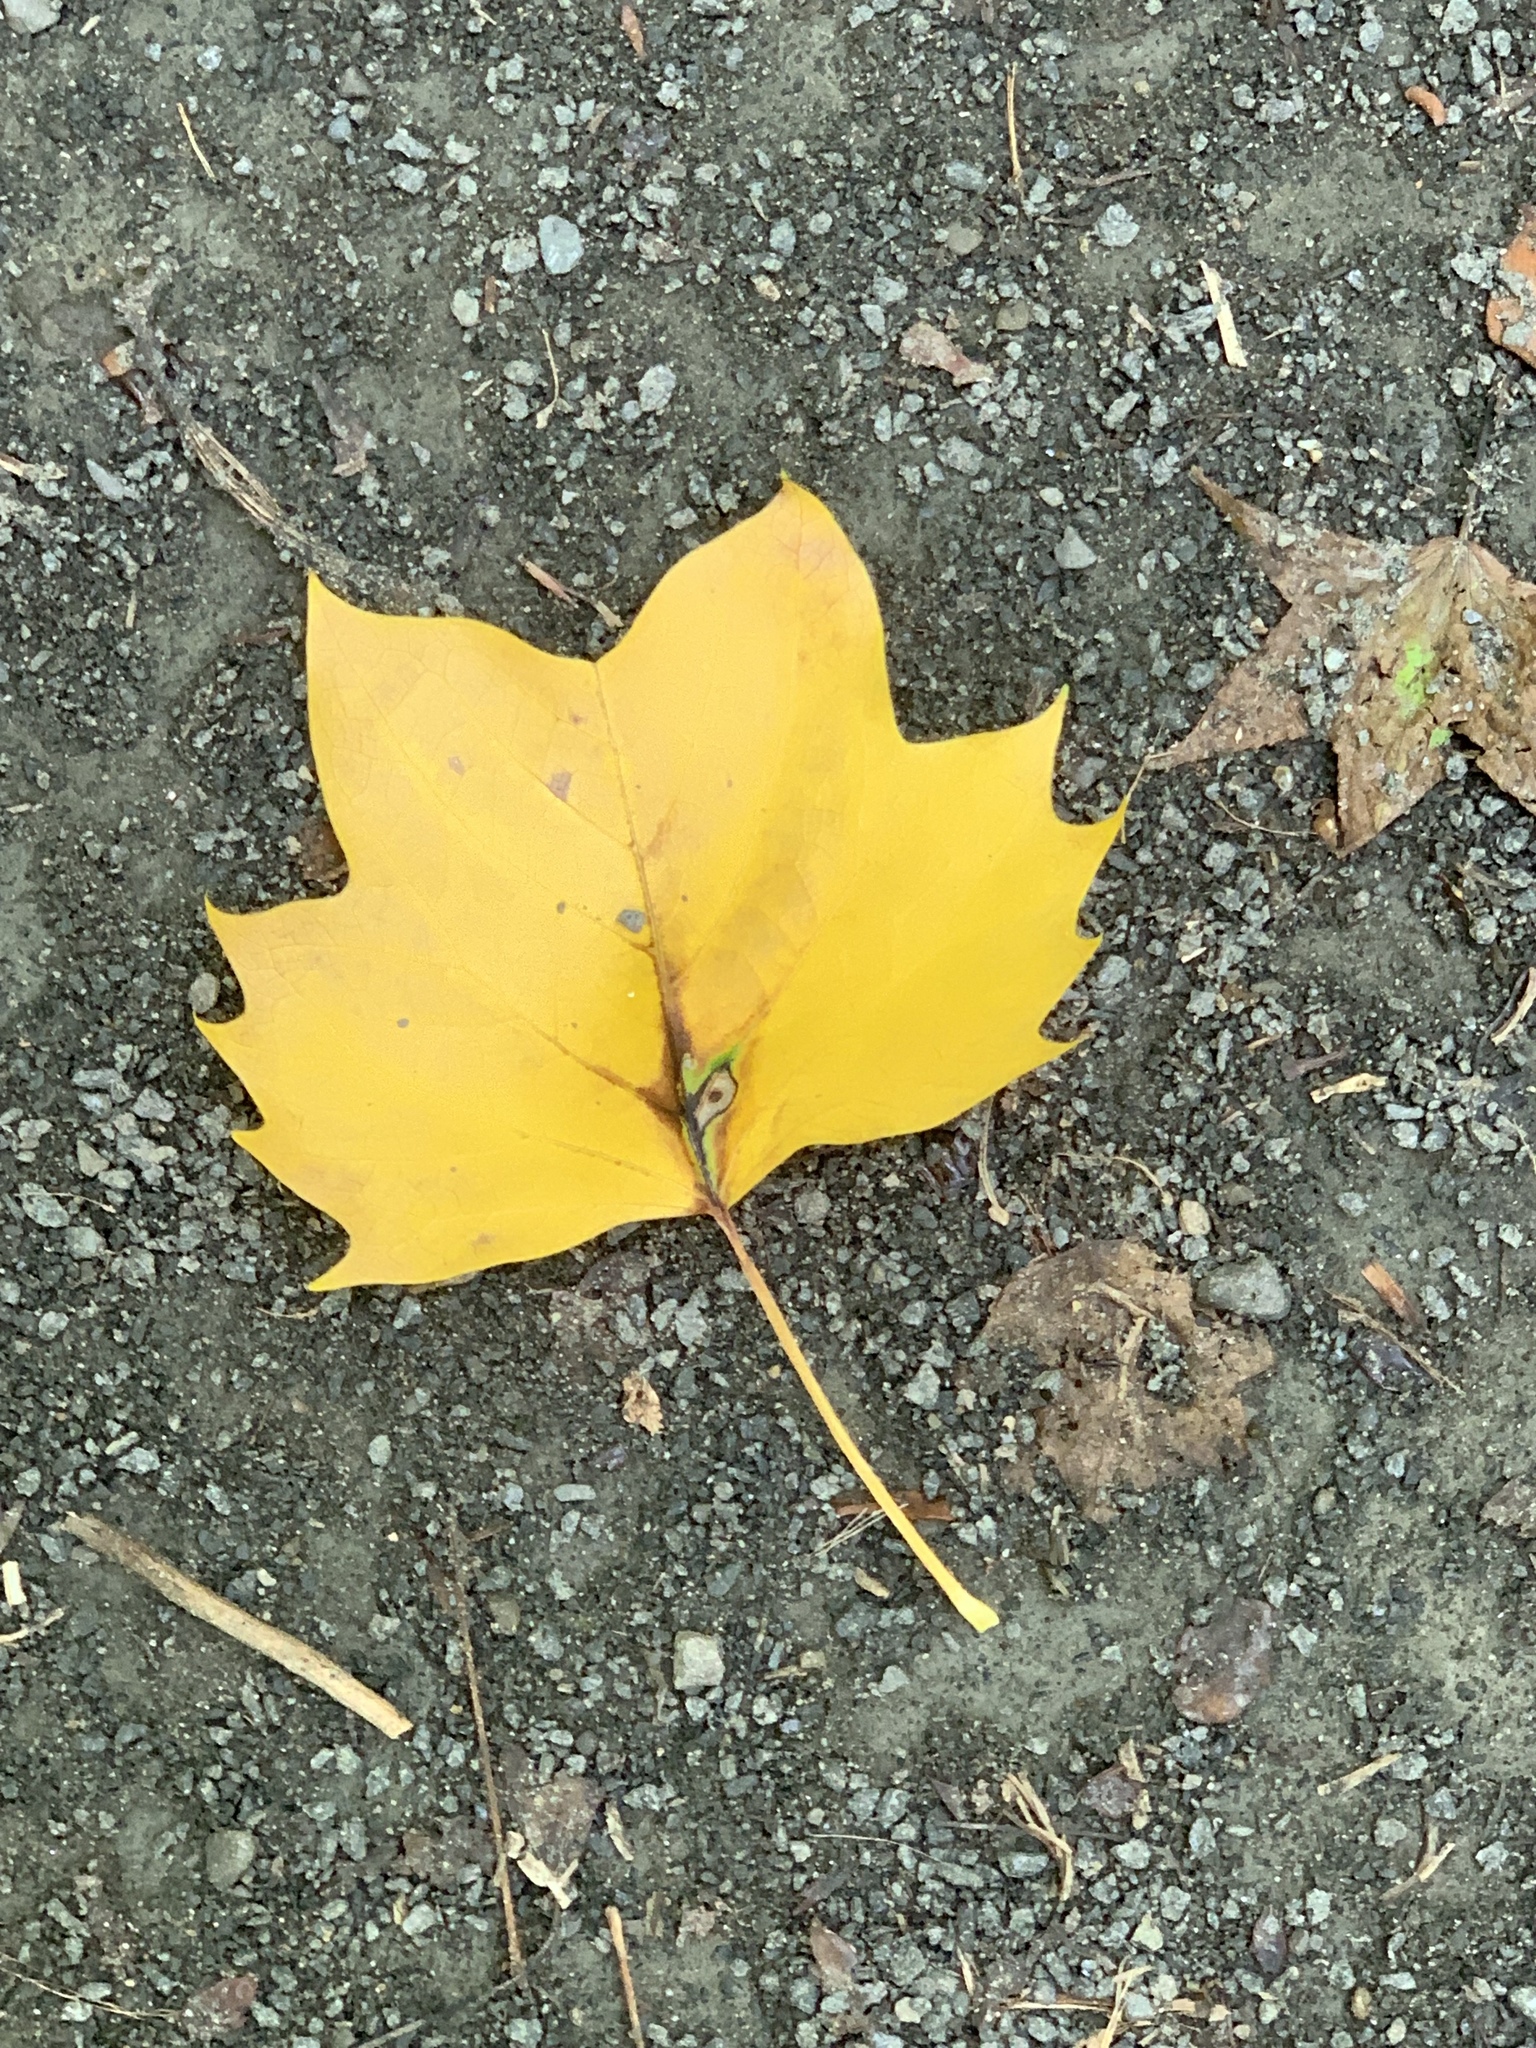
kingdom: Plantae
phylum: Tracheophyta
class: Magnoliopsida
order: Magnoliales
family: Magnoliaceae
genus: Liriodendron
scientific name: Liriodendron tulipifera
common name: Tulip tree
